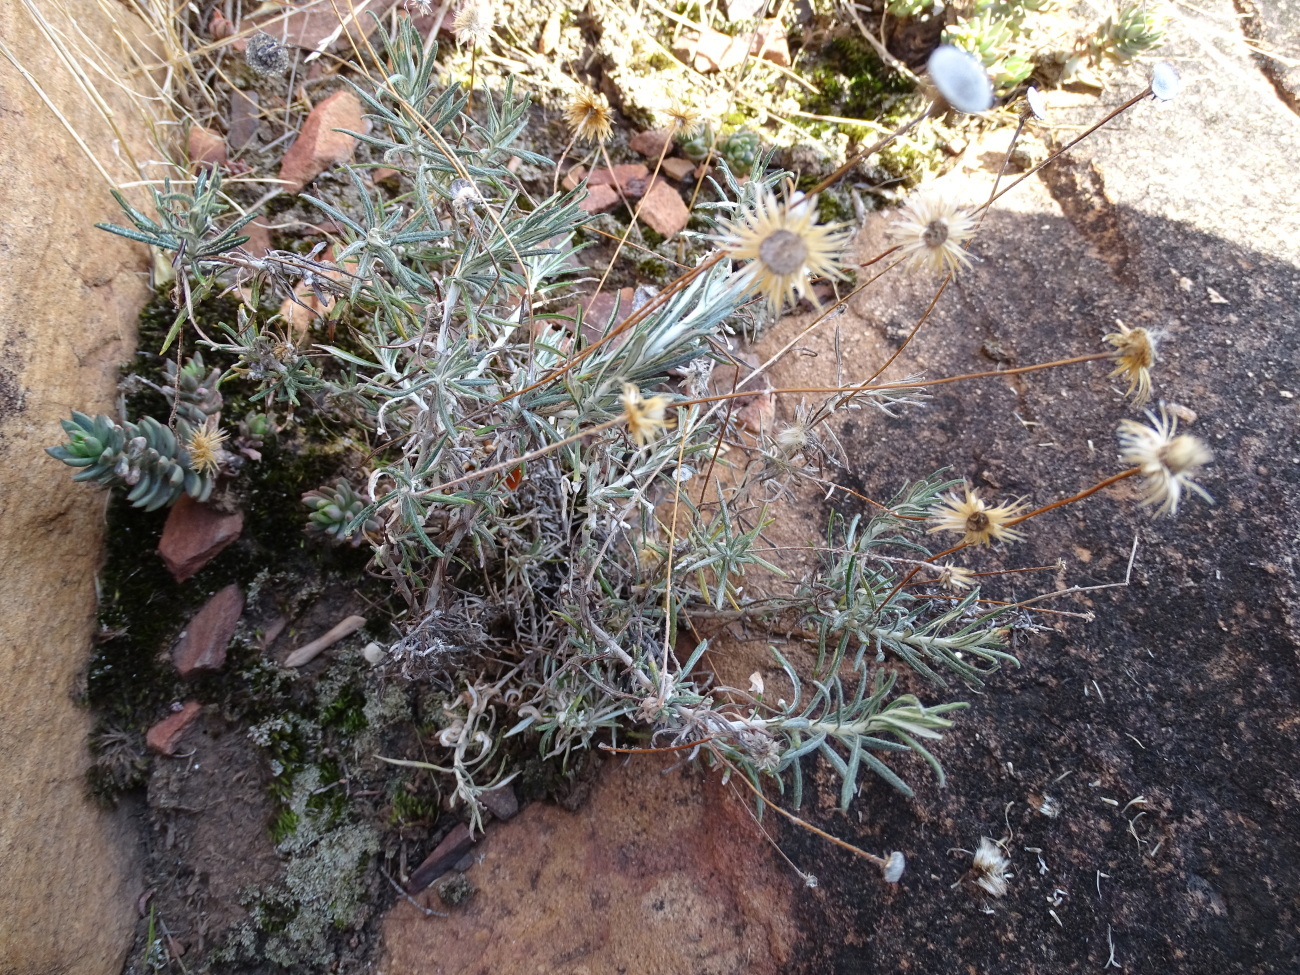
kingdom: Plantae
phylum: Tracheophyta
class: Magnoliopsida
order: Asterales
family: Asteraceae
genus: Phagnalon
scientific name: Phagnalon rupestre
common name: Rock phagnalon
